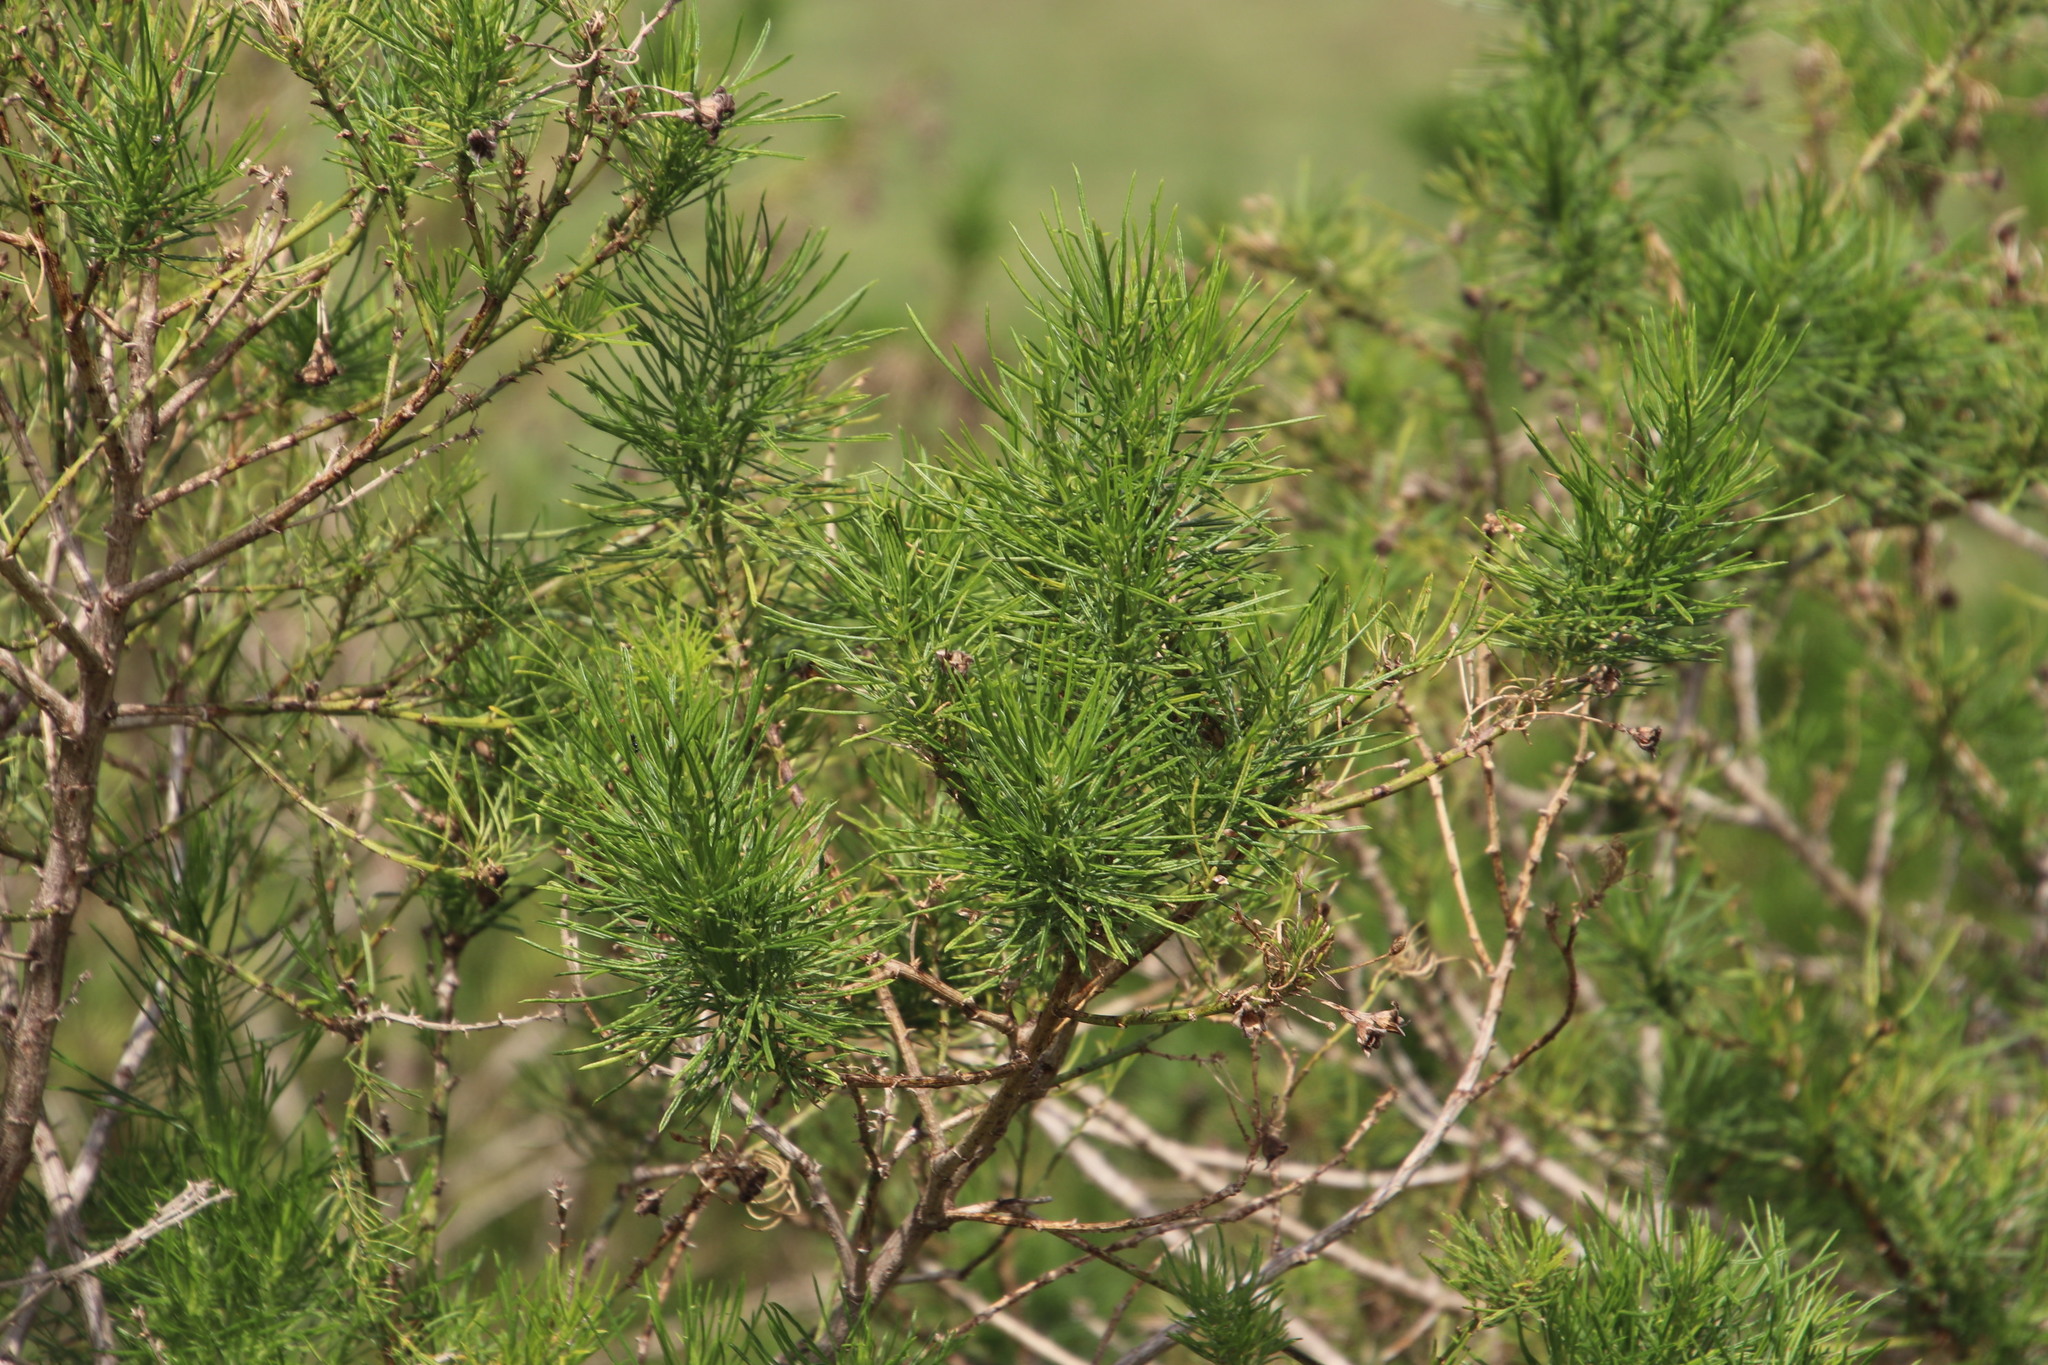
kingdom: Plantae
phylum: Tracheophyta
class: Magnoliopsida
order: Fabales
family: Fabaceae
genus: Psoralea
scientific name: Psoralea arborea
